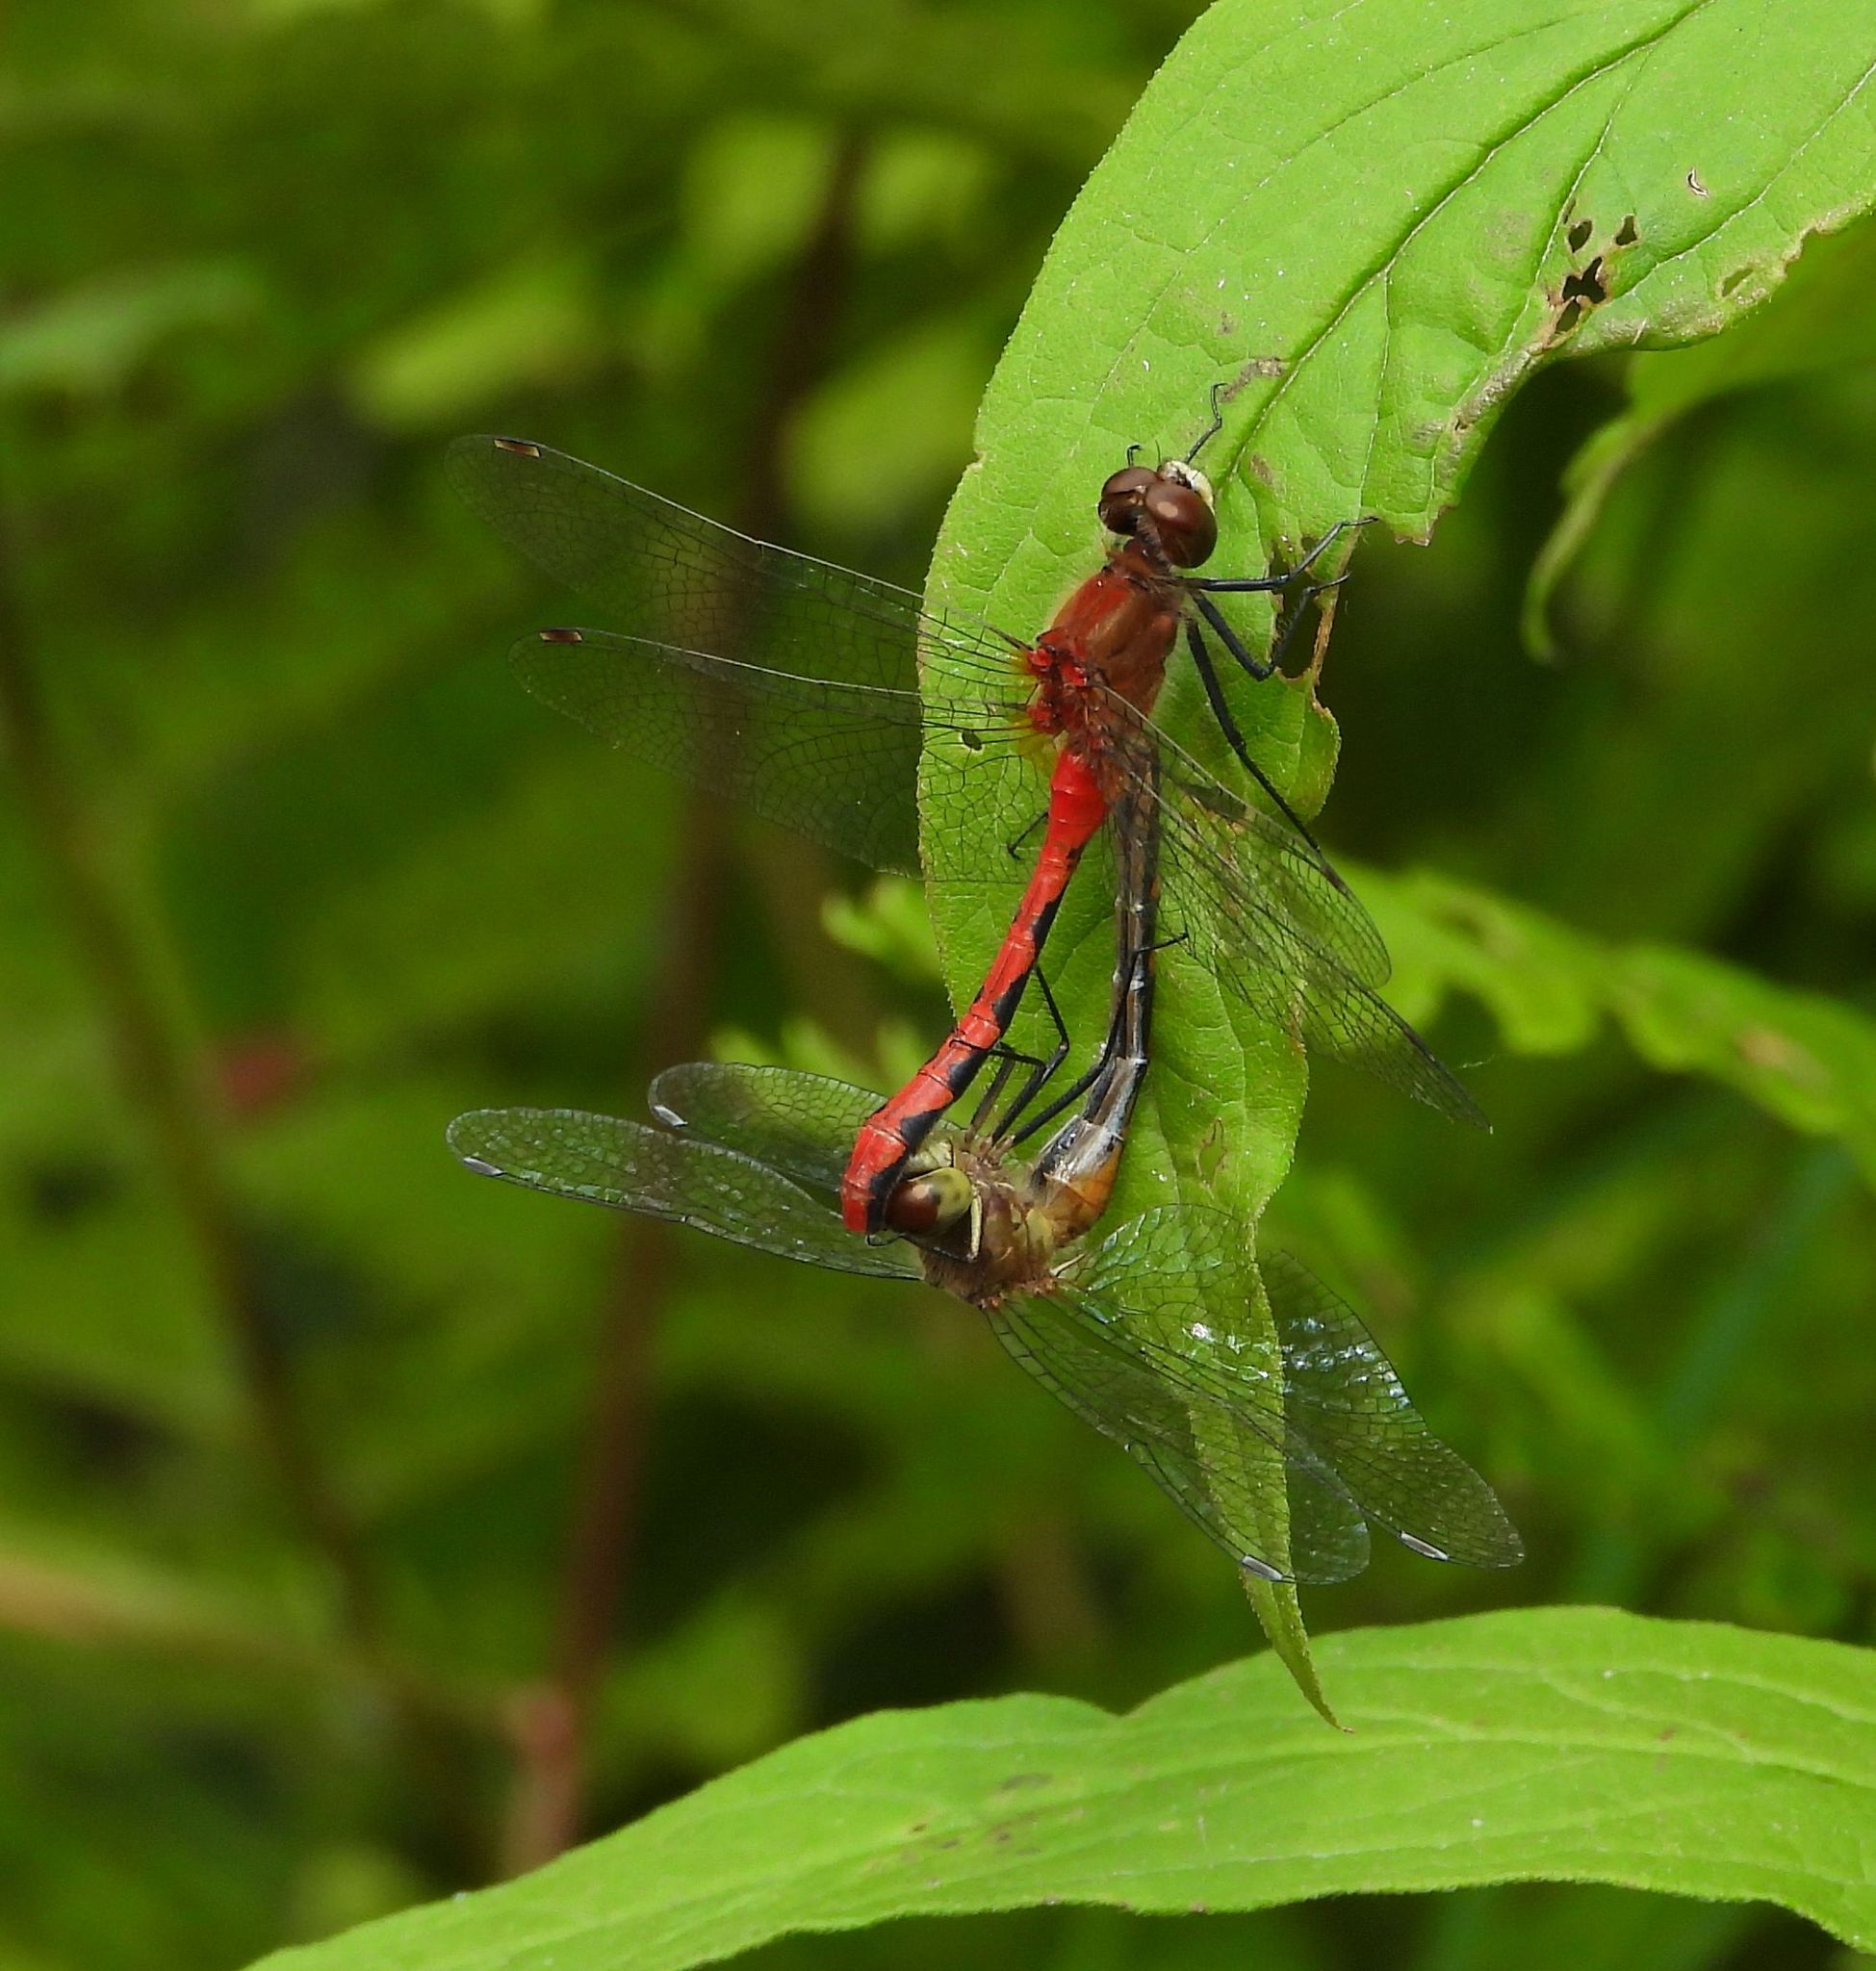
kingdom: Animalia
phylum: Arthropoda
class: Insecta
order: Odonata
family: Libellulidae
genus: Sympetrum
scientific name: Sympetrum obtrusum
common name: White-faced meadowhawk
